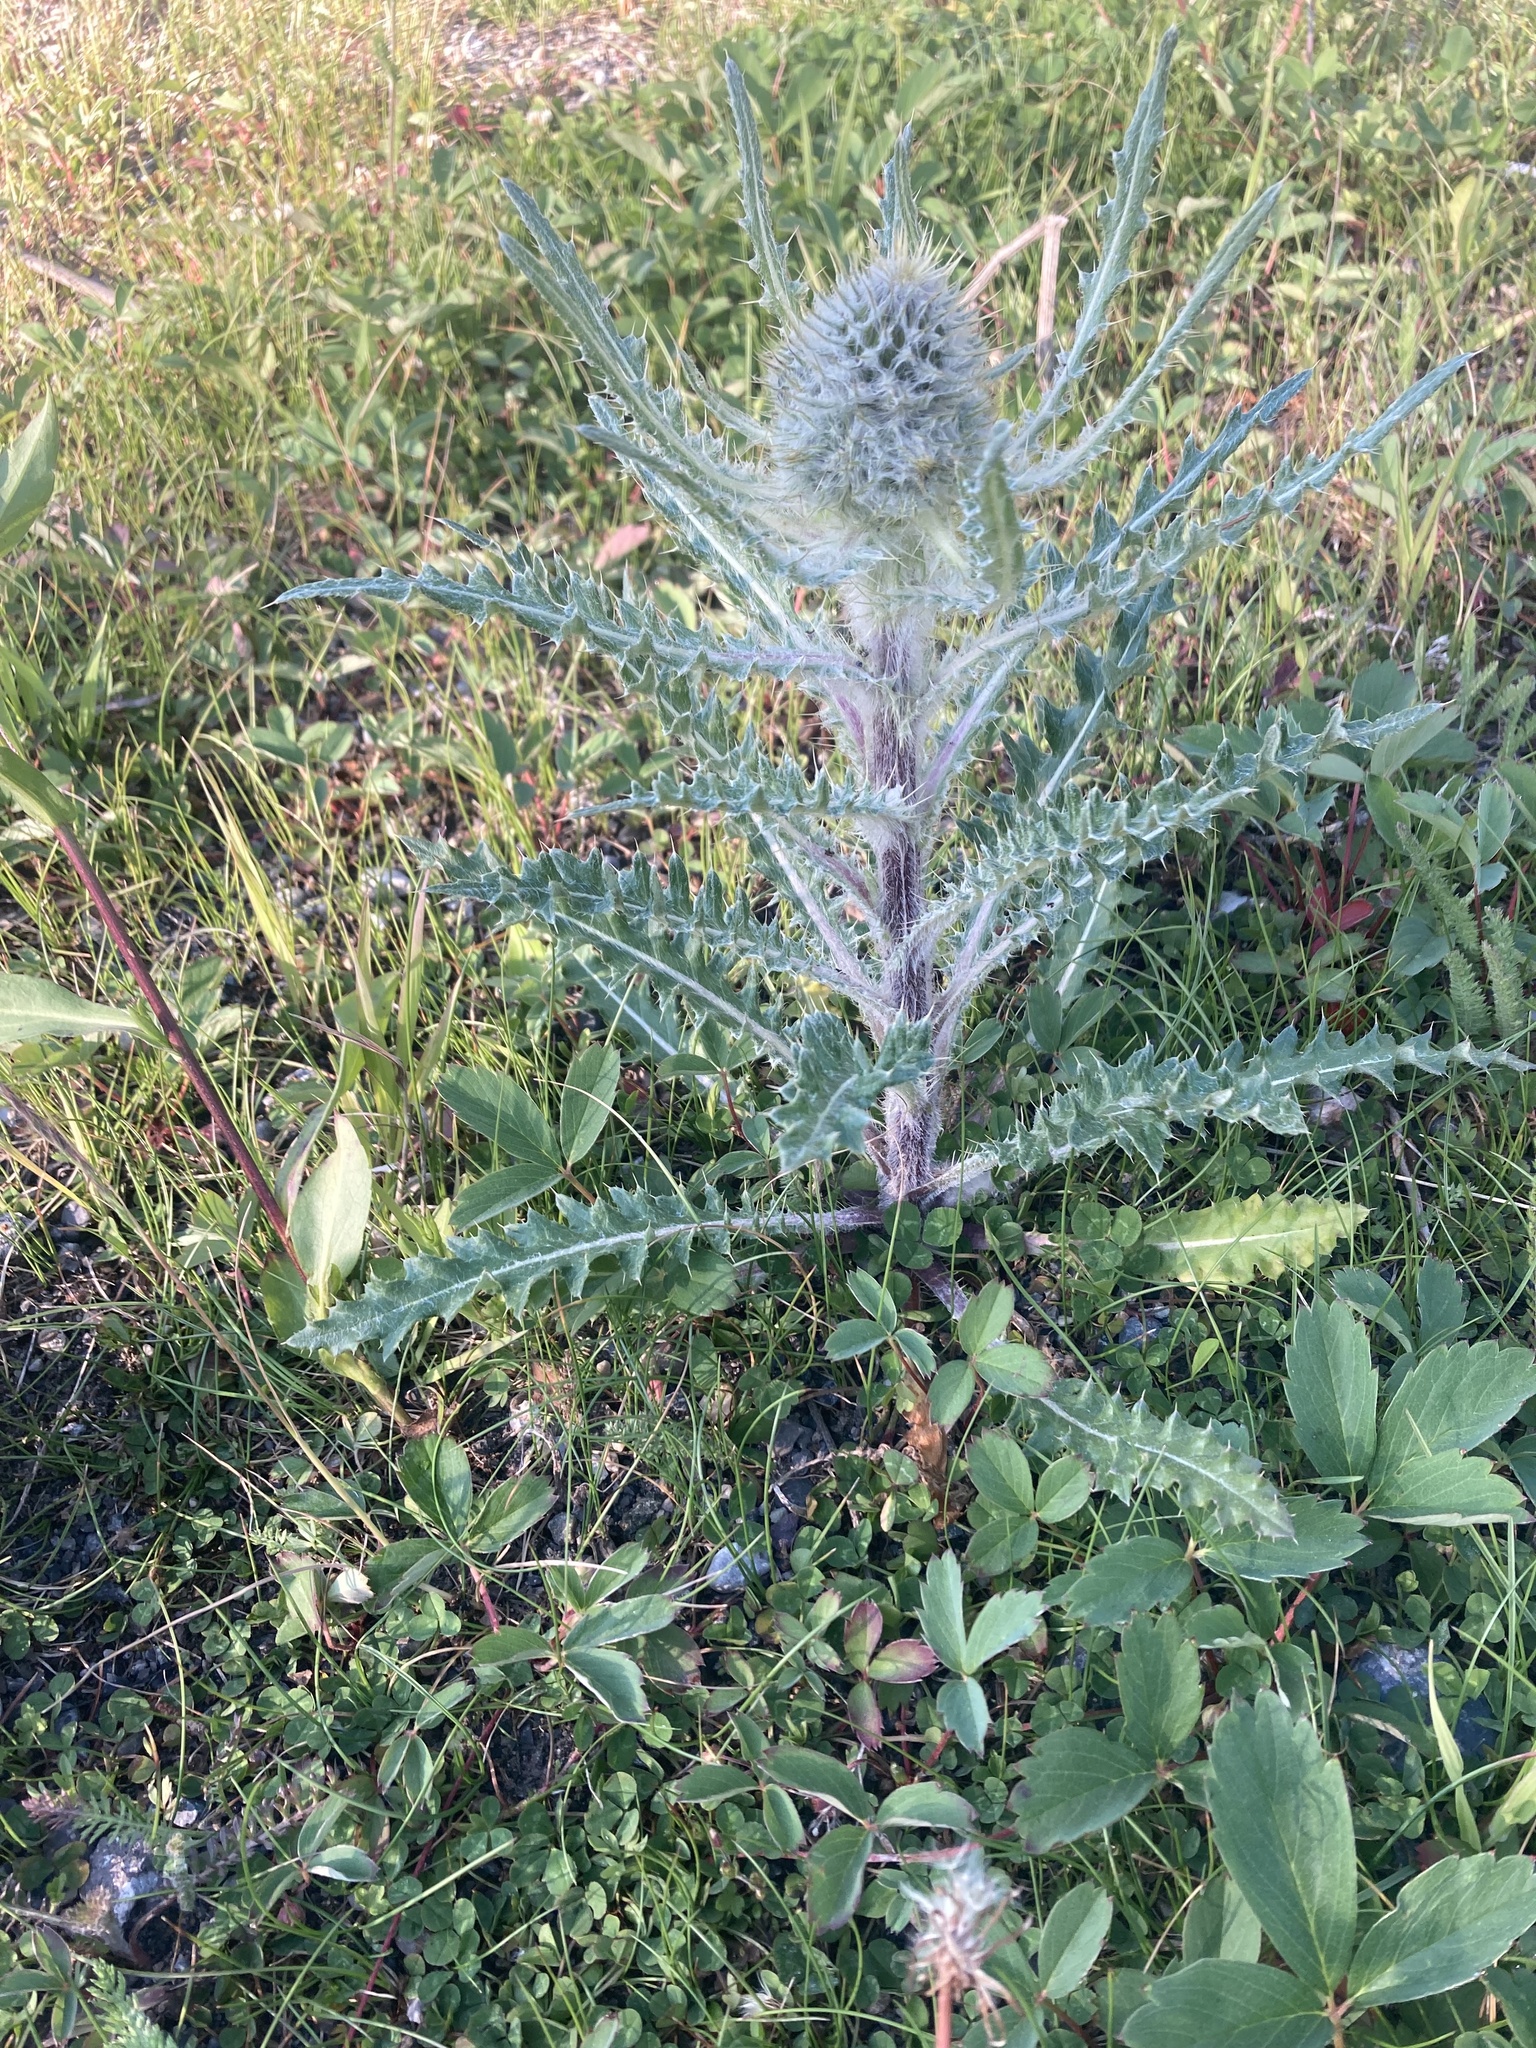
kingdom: Plantae
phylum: Tracheophyta
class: Magnoliopsida
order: Asterales
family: Asteraceae
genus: Cirsium
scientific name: Cirsium hookerianum
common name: Hooker's thistle
